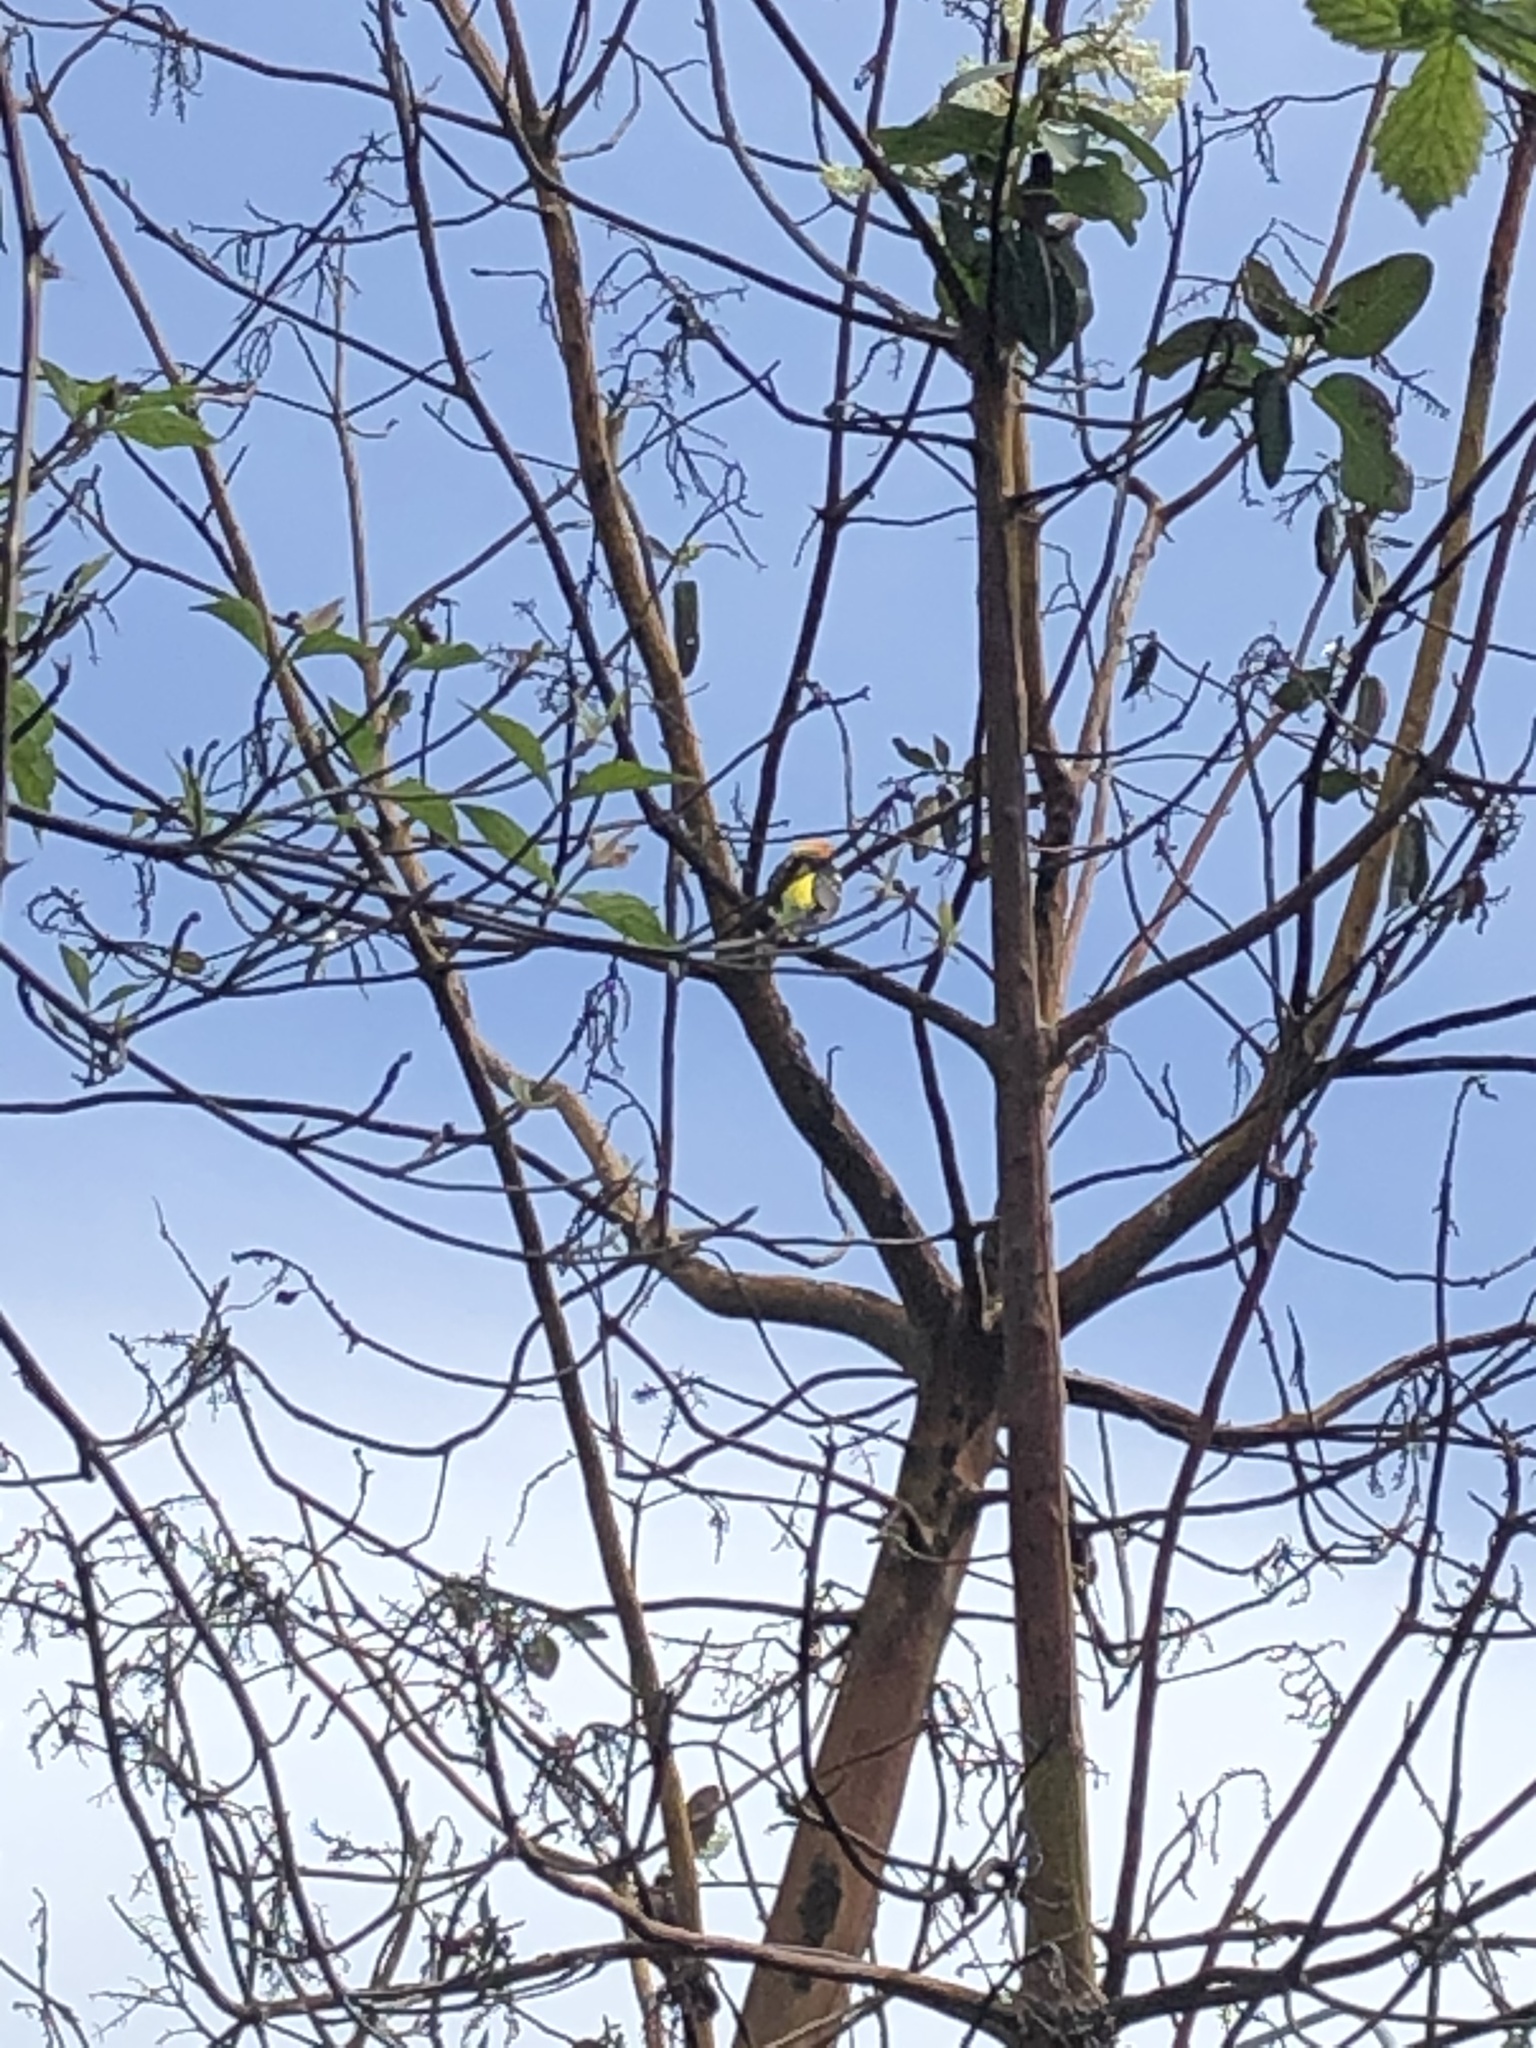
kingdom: Animalia
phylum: Chordata
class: Aves
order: Passeriformes
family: Cardinalidae
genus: Piranga
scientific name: Piranga ludoviciana
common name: Western tanager
